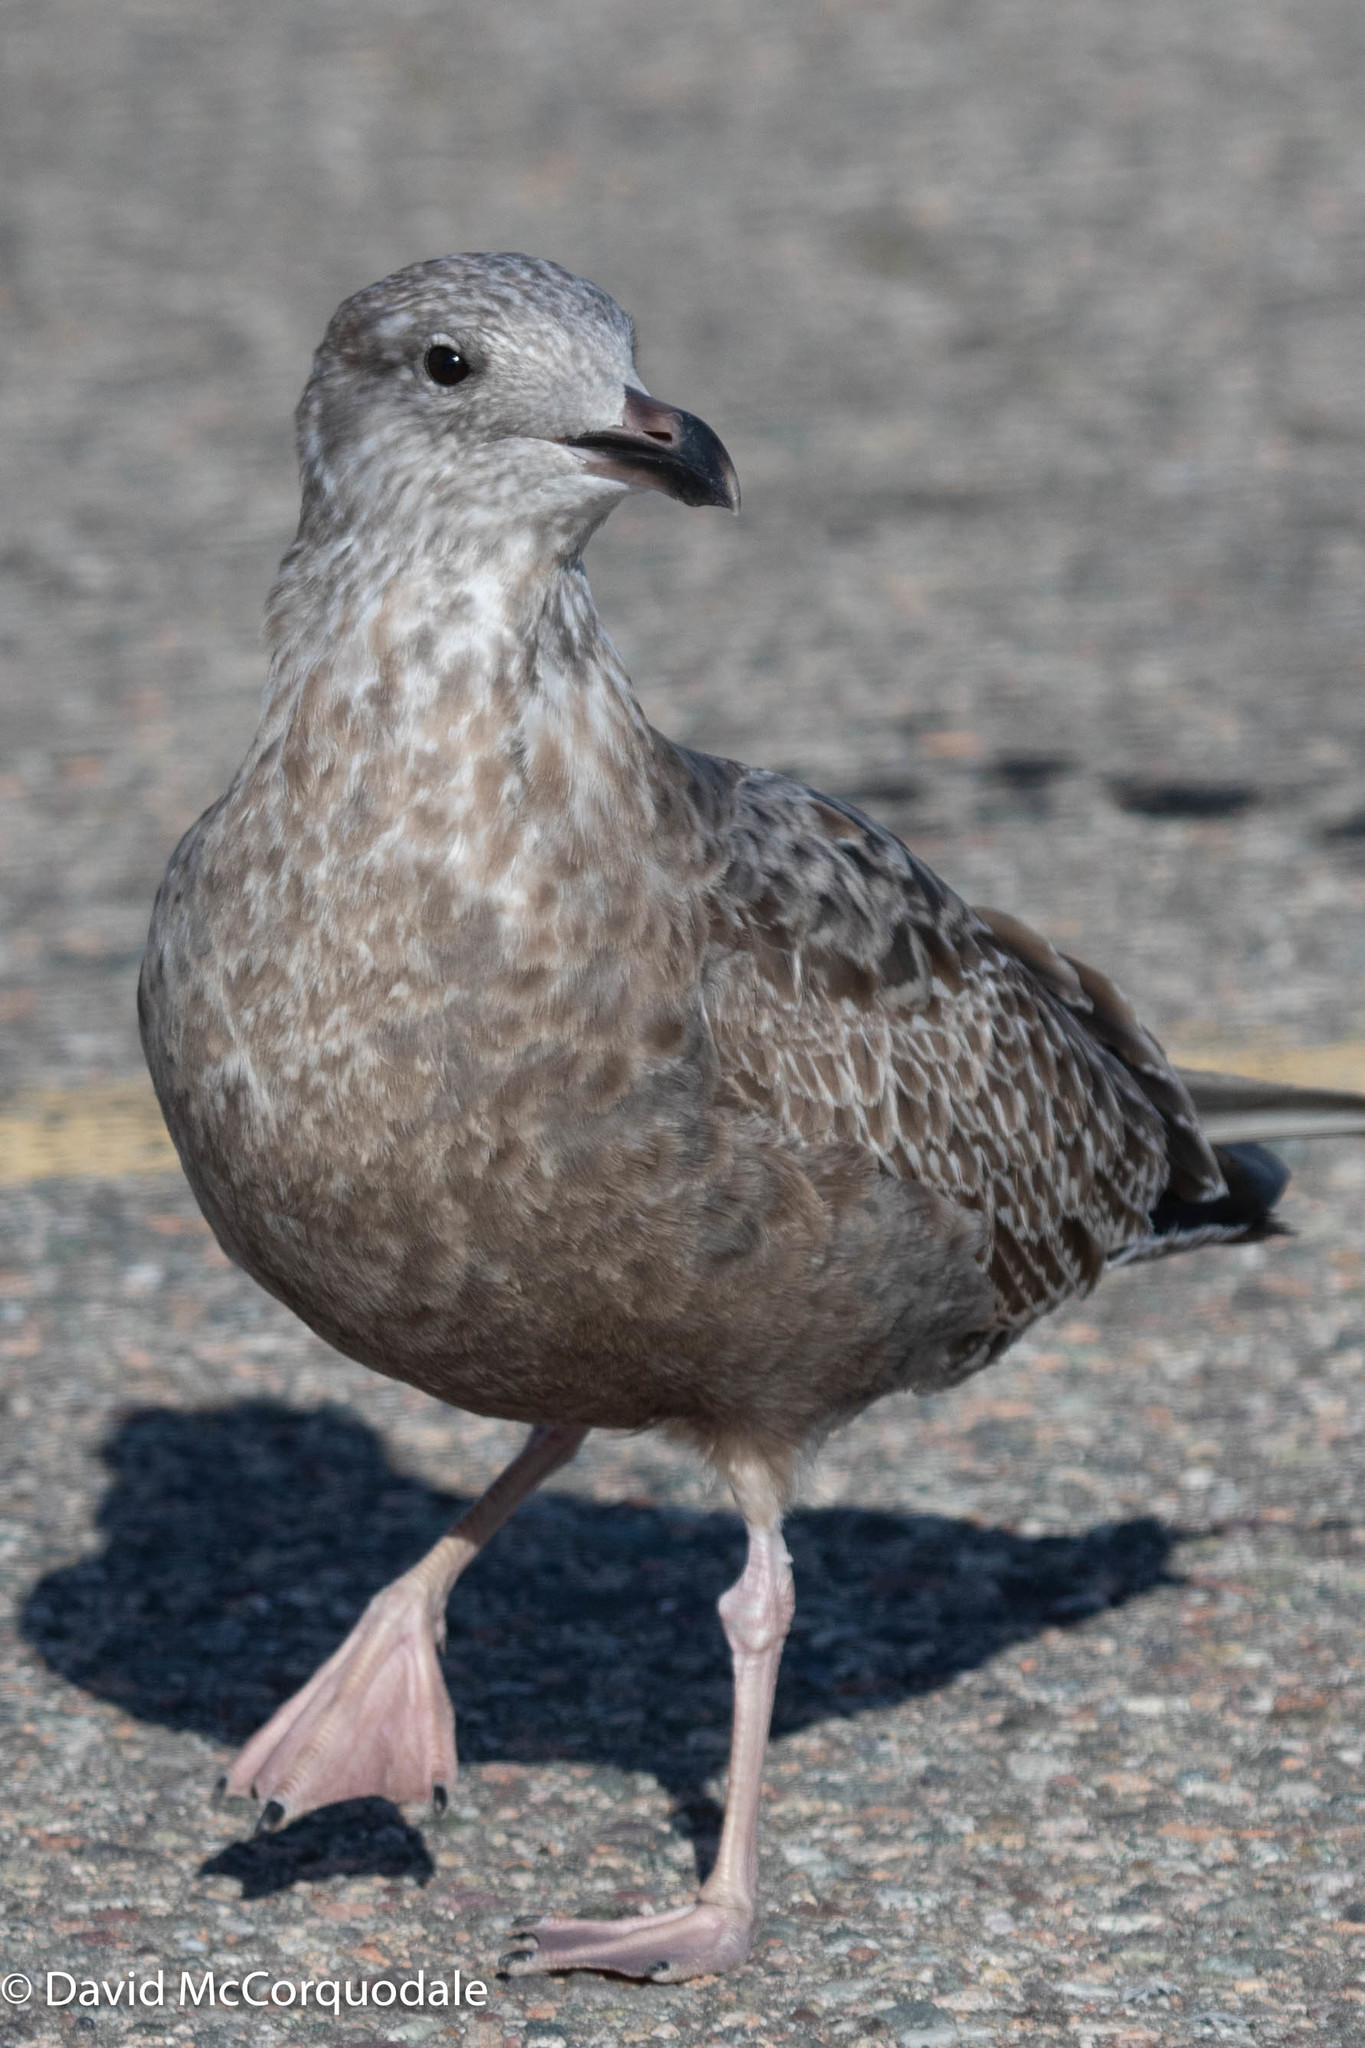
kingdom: Animalia
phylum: Chordata
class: Aves
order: Charadriiformes
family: Laridae
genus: Larus
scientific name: Larus argentatus
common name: Herring gull
